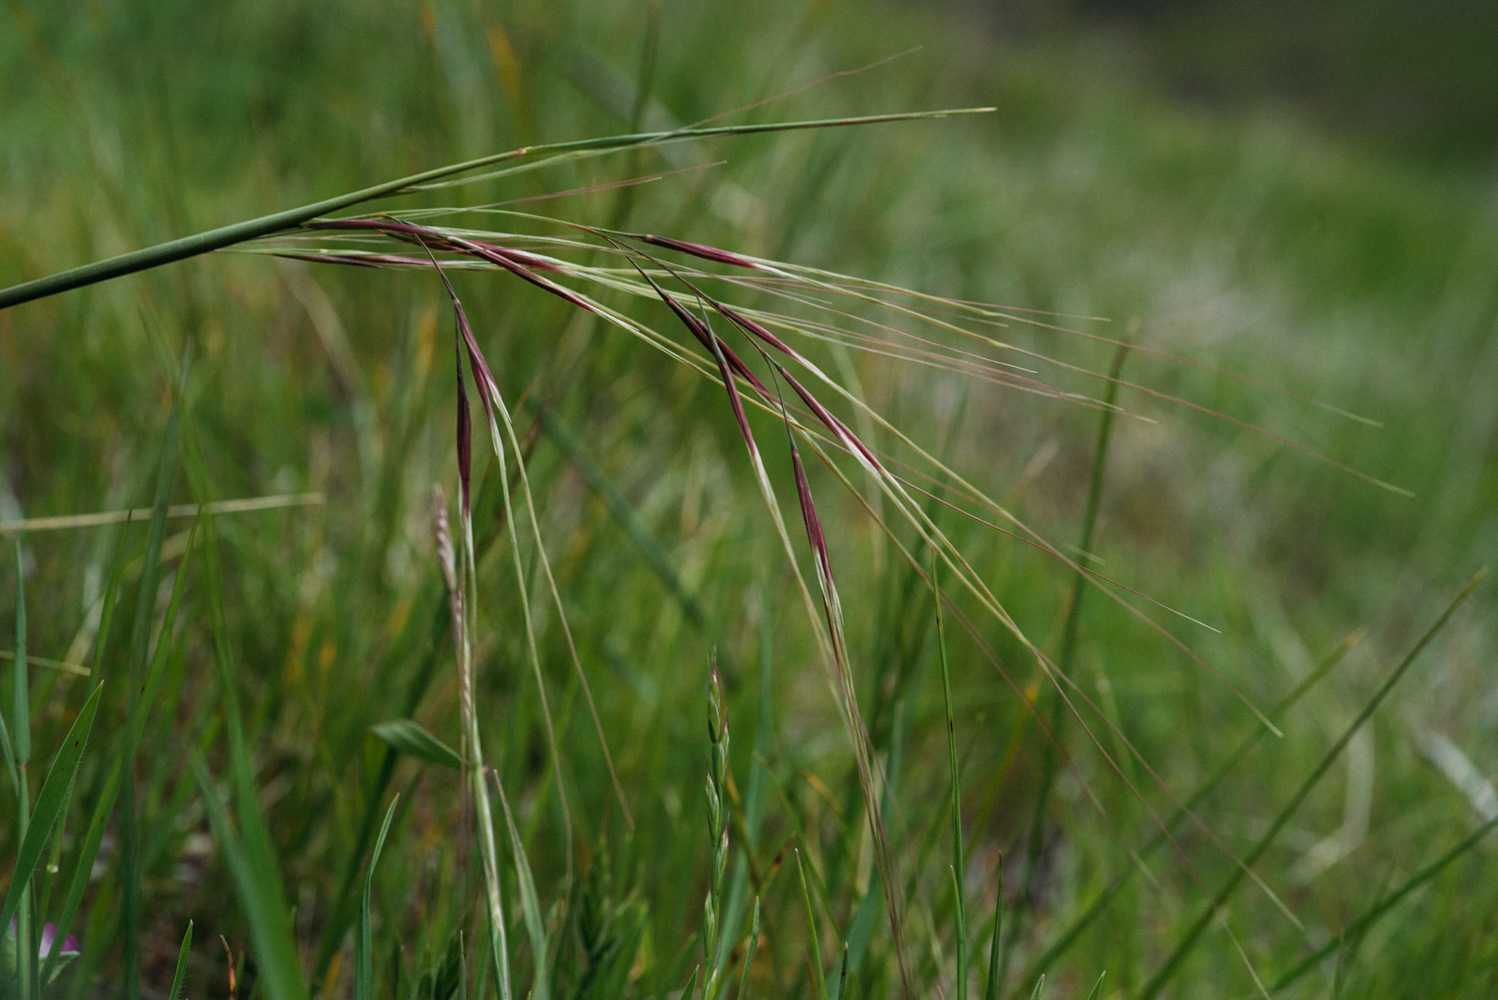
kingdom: Plantae
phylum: Tracheophyta
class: Liliopsida
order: Poales
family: Poaceae
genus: Nassella
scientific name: Nassella pulchra
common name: Purple needlegrass
